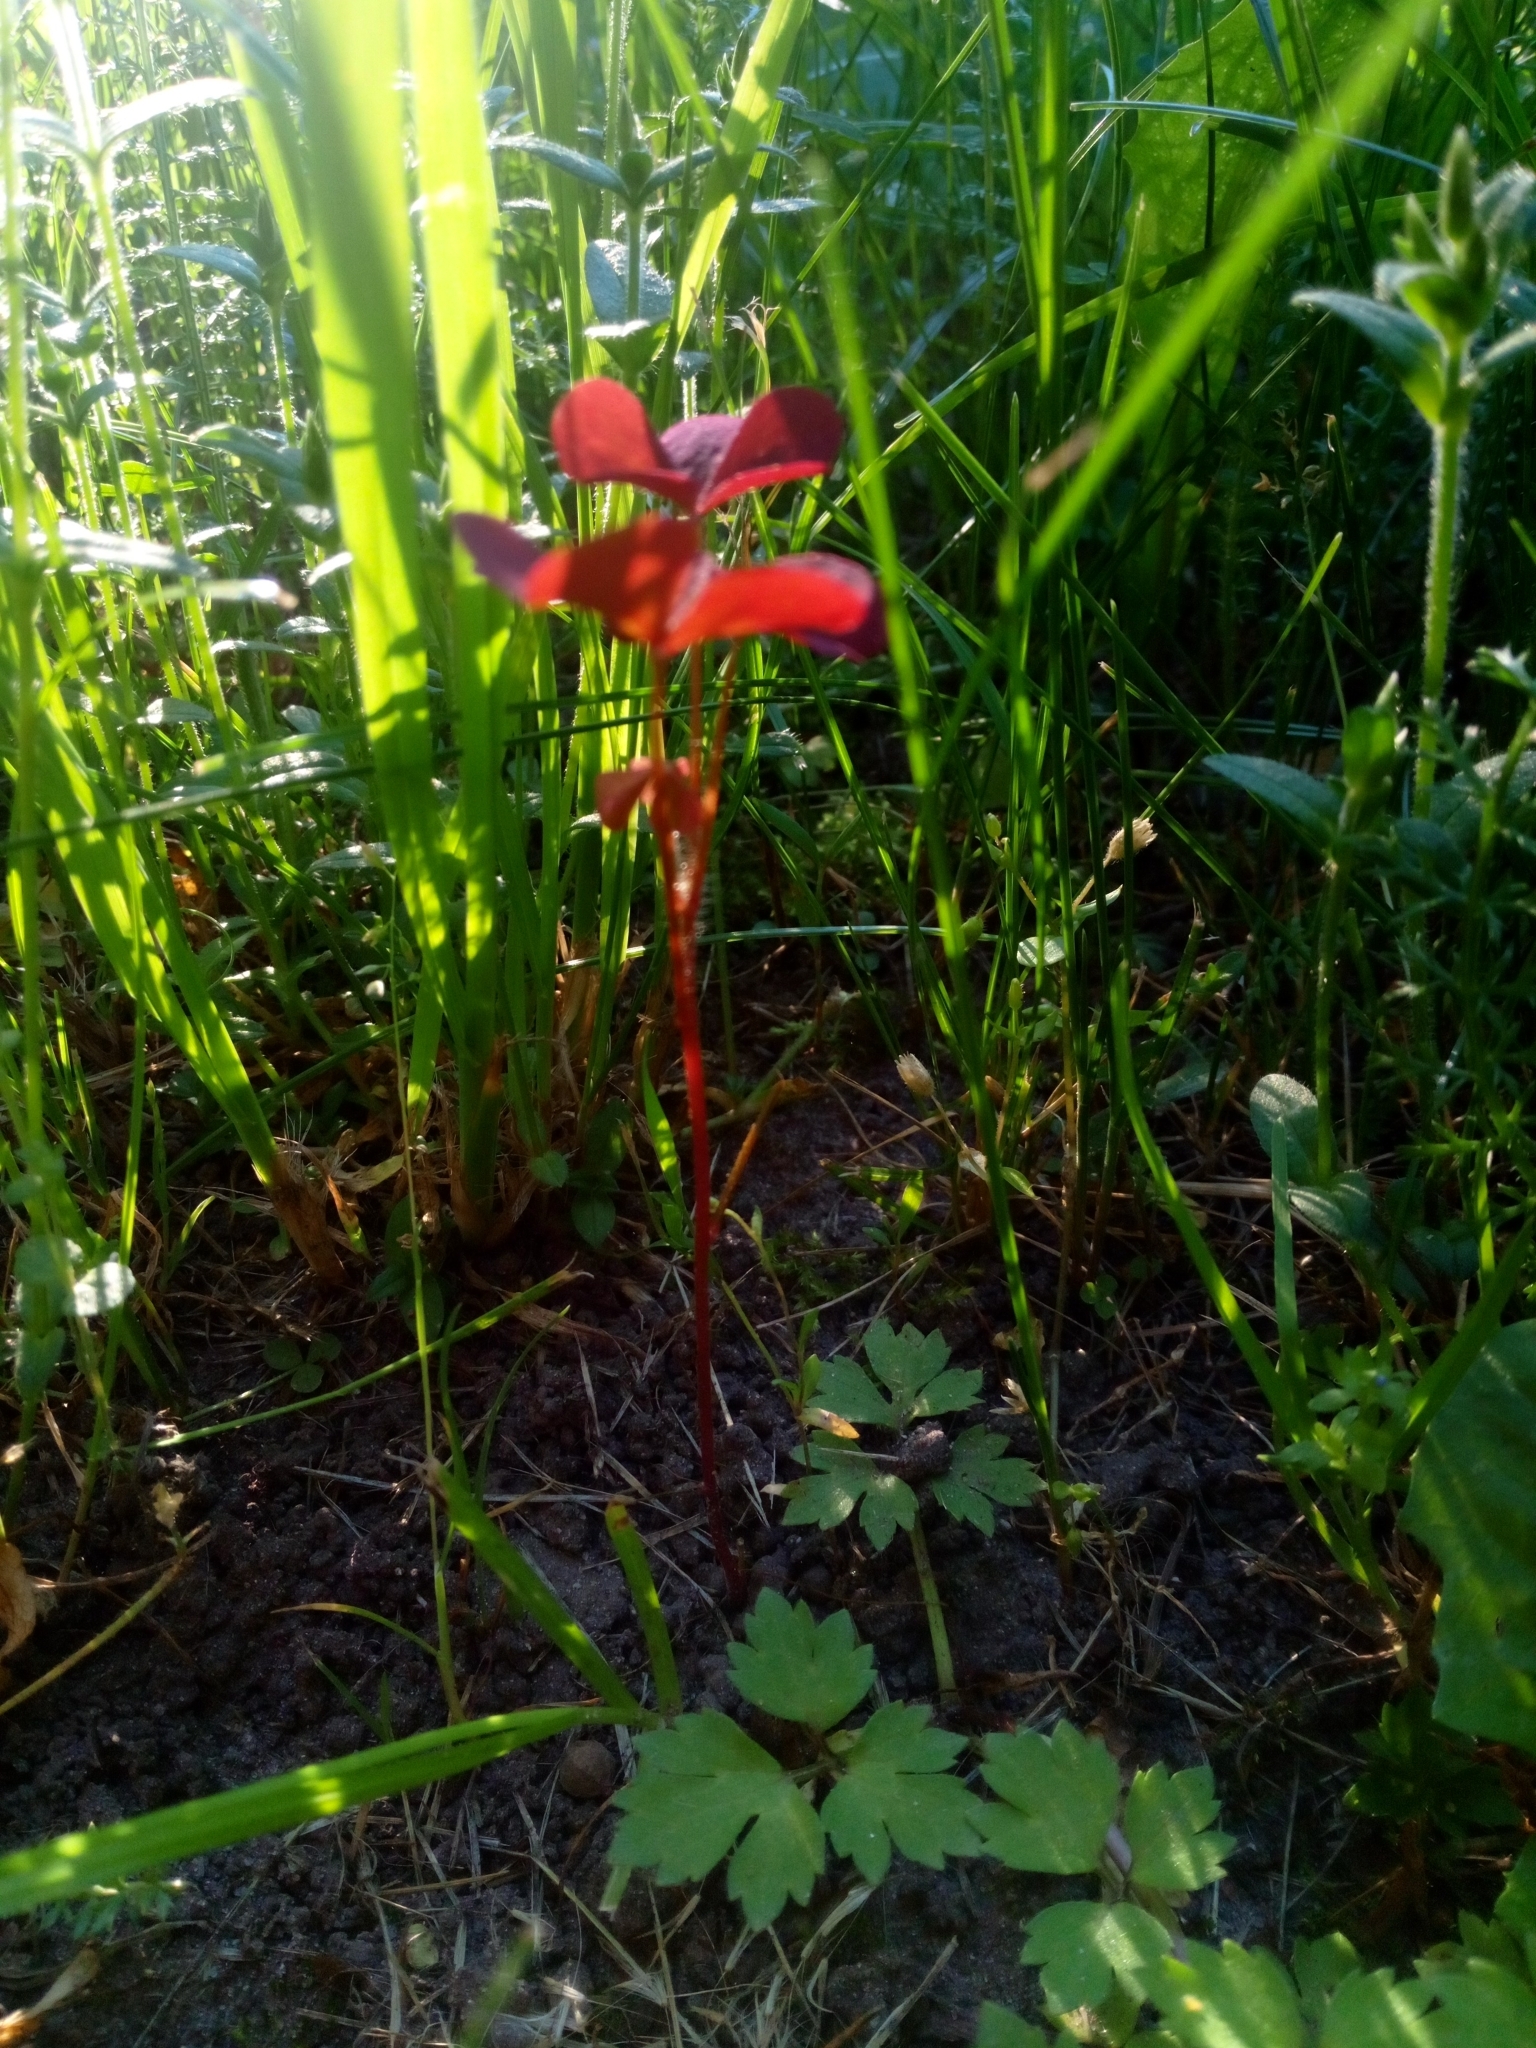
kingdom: Plantae
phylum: Tracheophyta
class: Magnoliopsida
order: Oxalidales
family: Oxalidaceae
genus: Oxalis
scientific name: Oxalis stricta
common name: Upright yellow-sorrel
